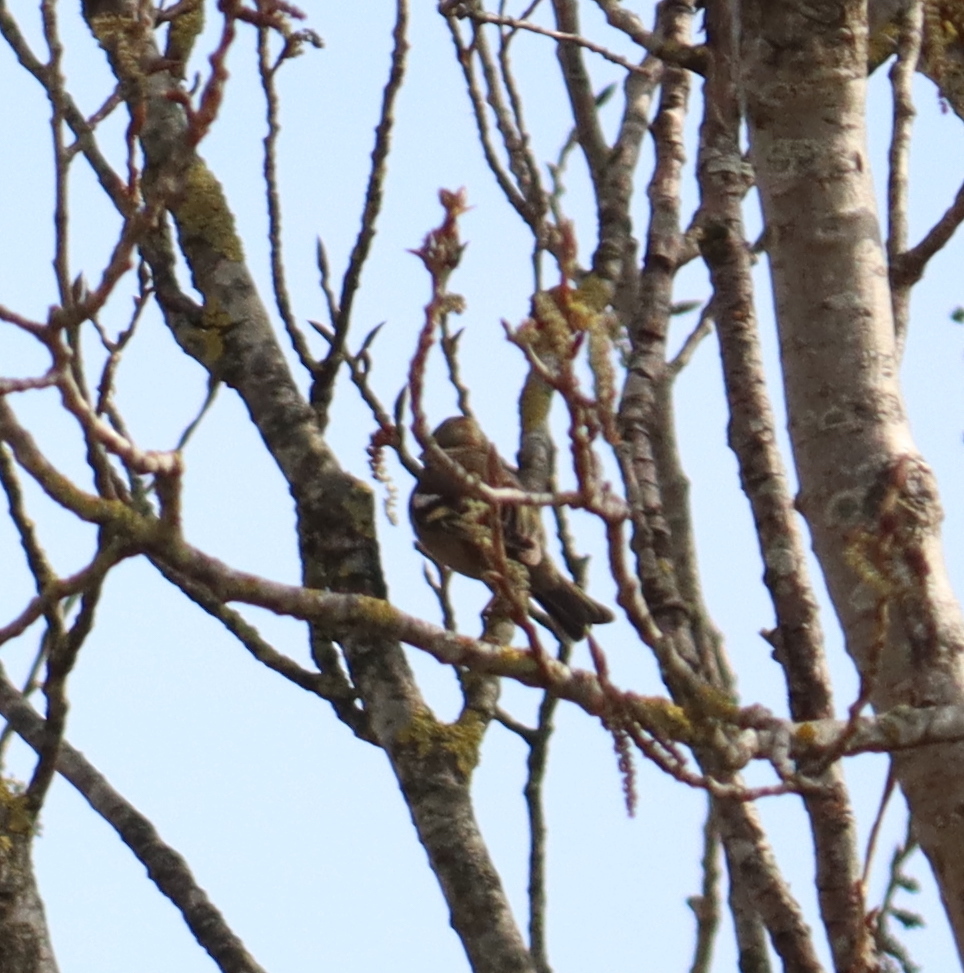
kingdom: Animalia
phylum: Chordata
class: Aves
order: Passeriformes
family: Fringillidae
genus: Fringilla
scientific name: Fringilla coelebs
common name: Common chaffinch
